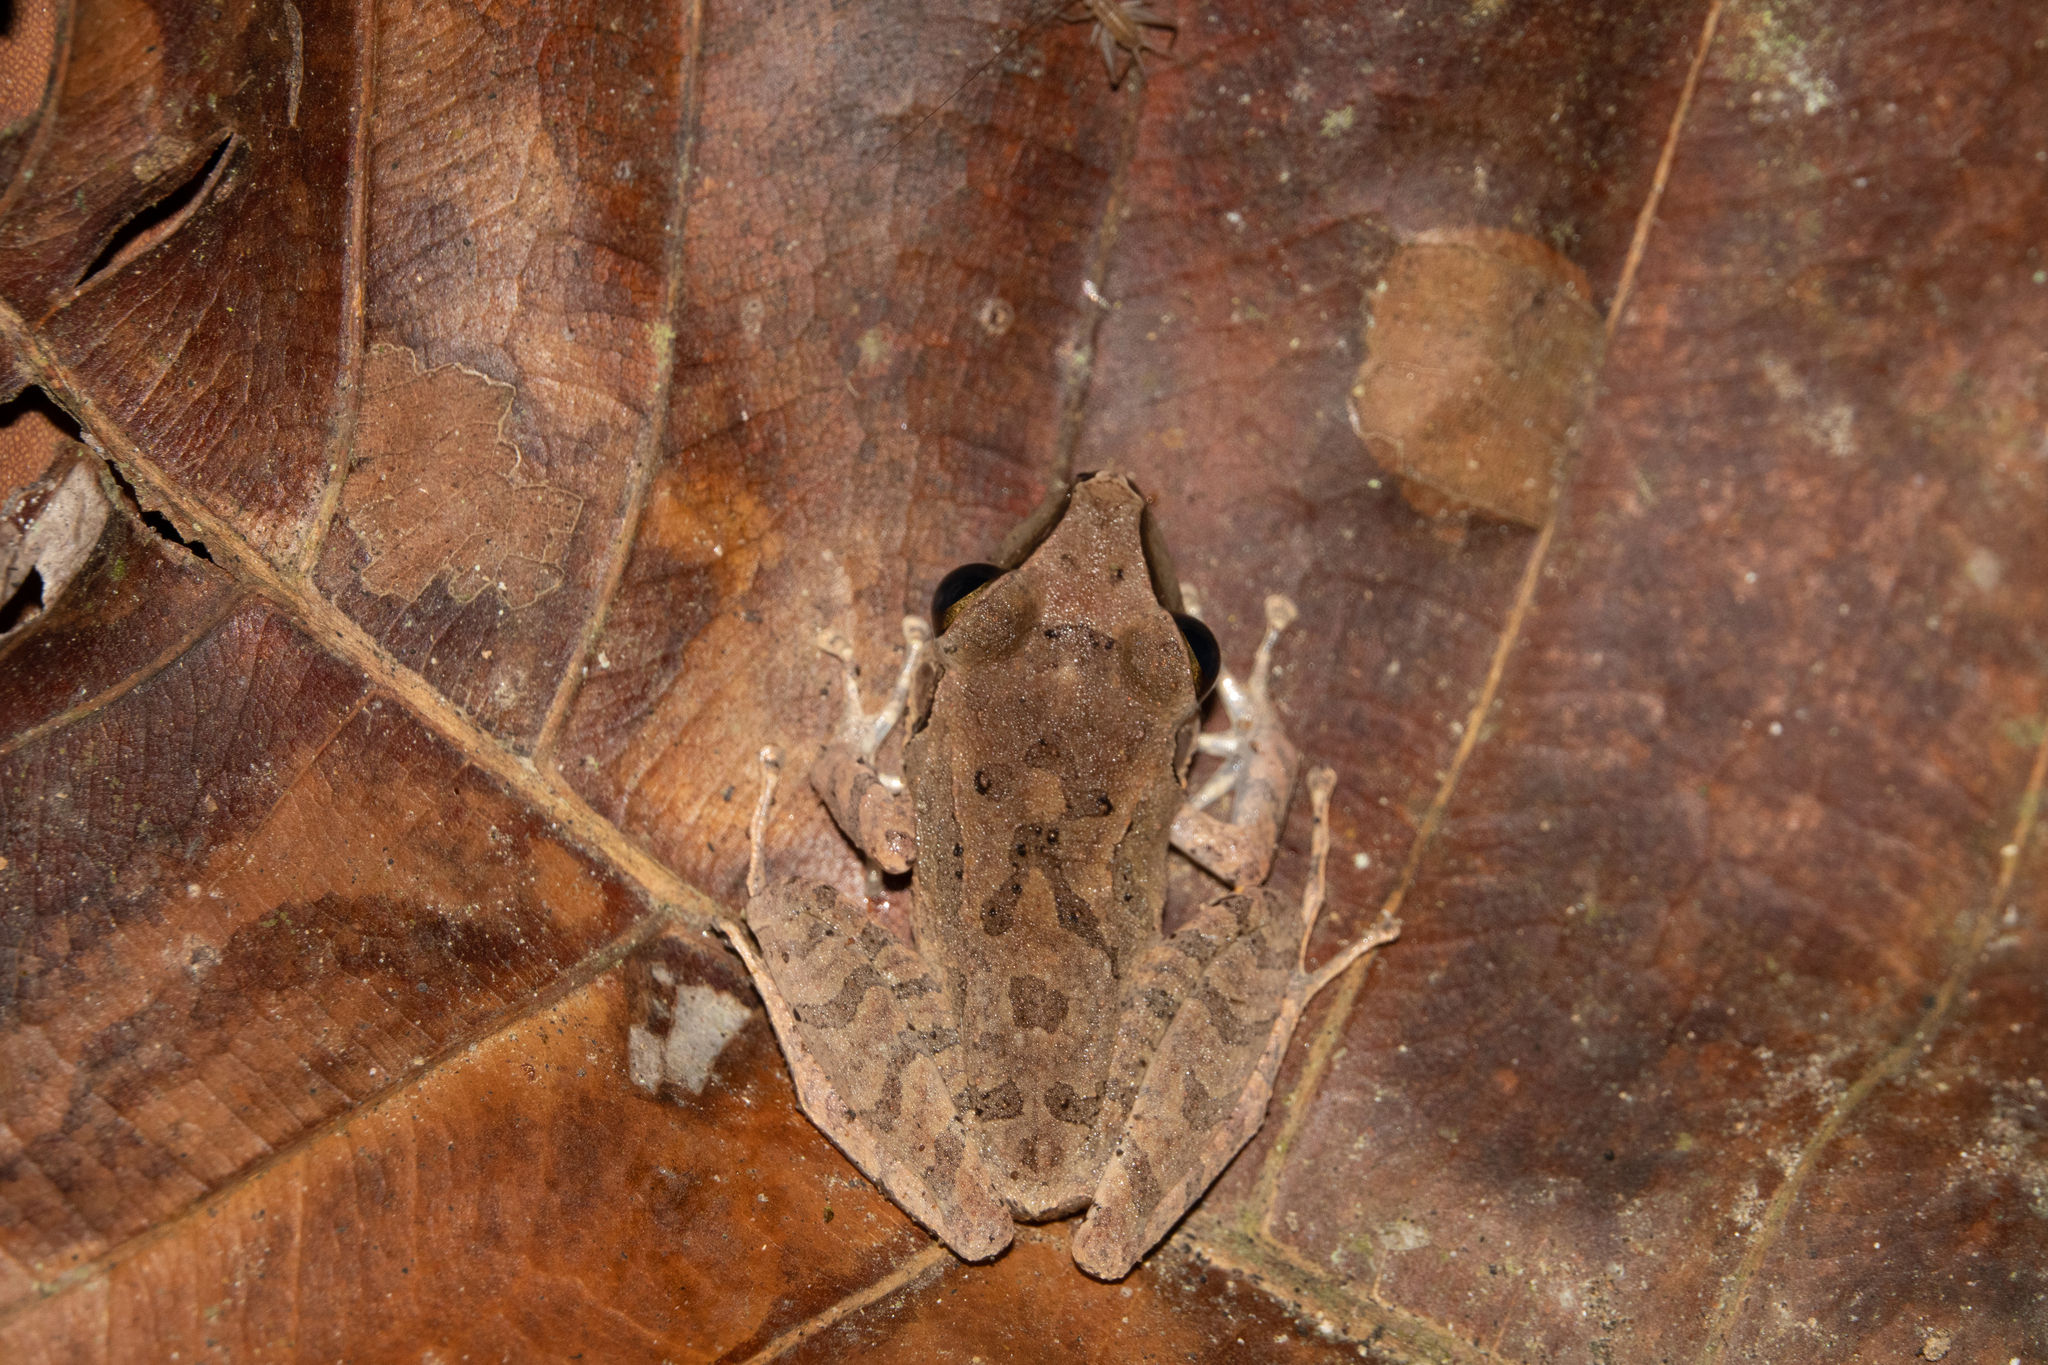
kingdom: Animalia
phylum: Chordata
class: Amphibia
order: Anura
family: Craugastoridae
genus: Pristimantis
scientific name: Pristimantis achatinus
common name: Cachabi robber frog
